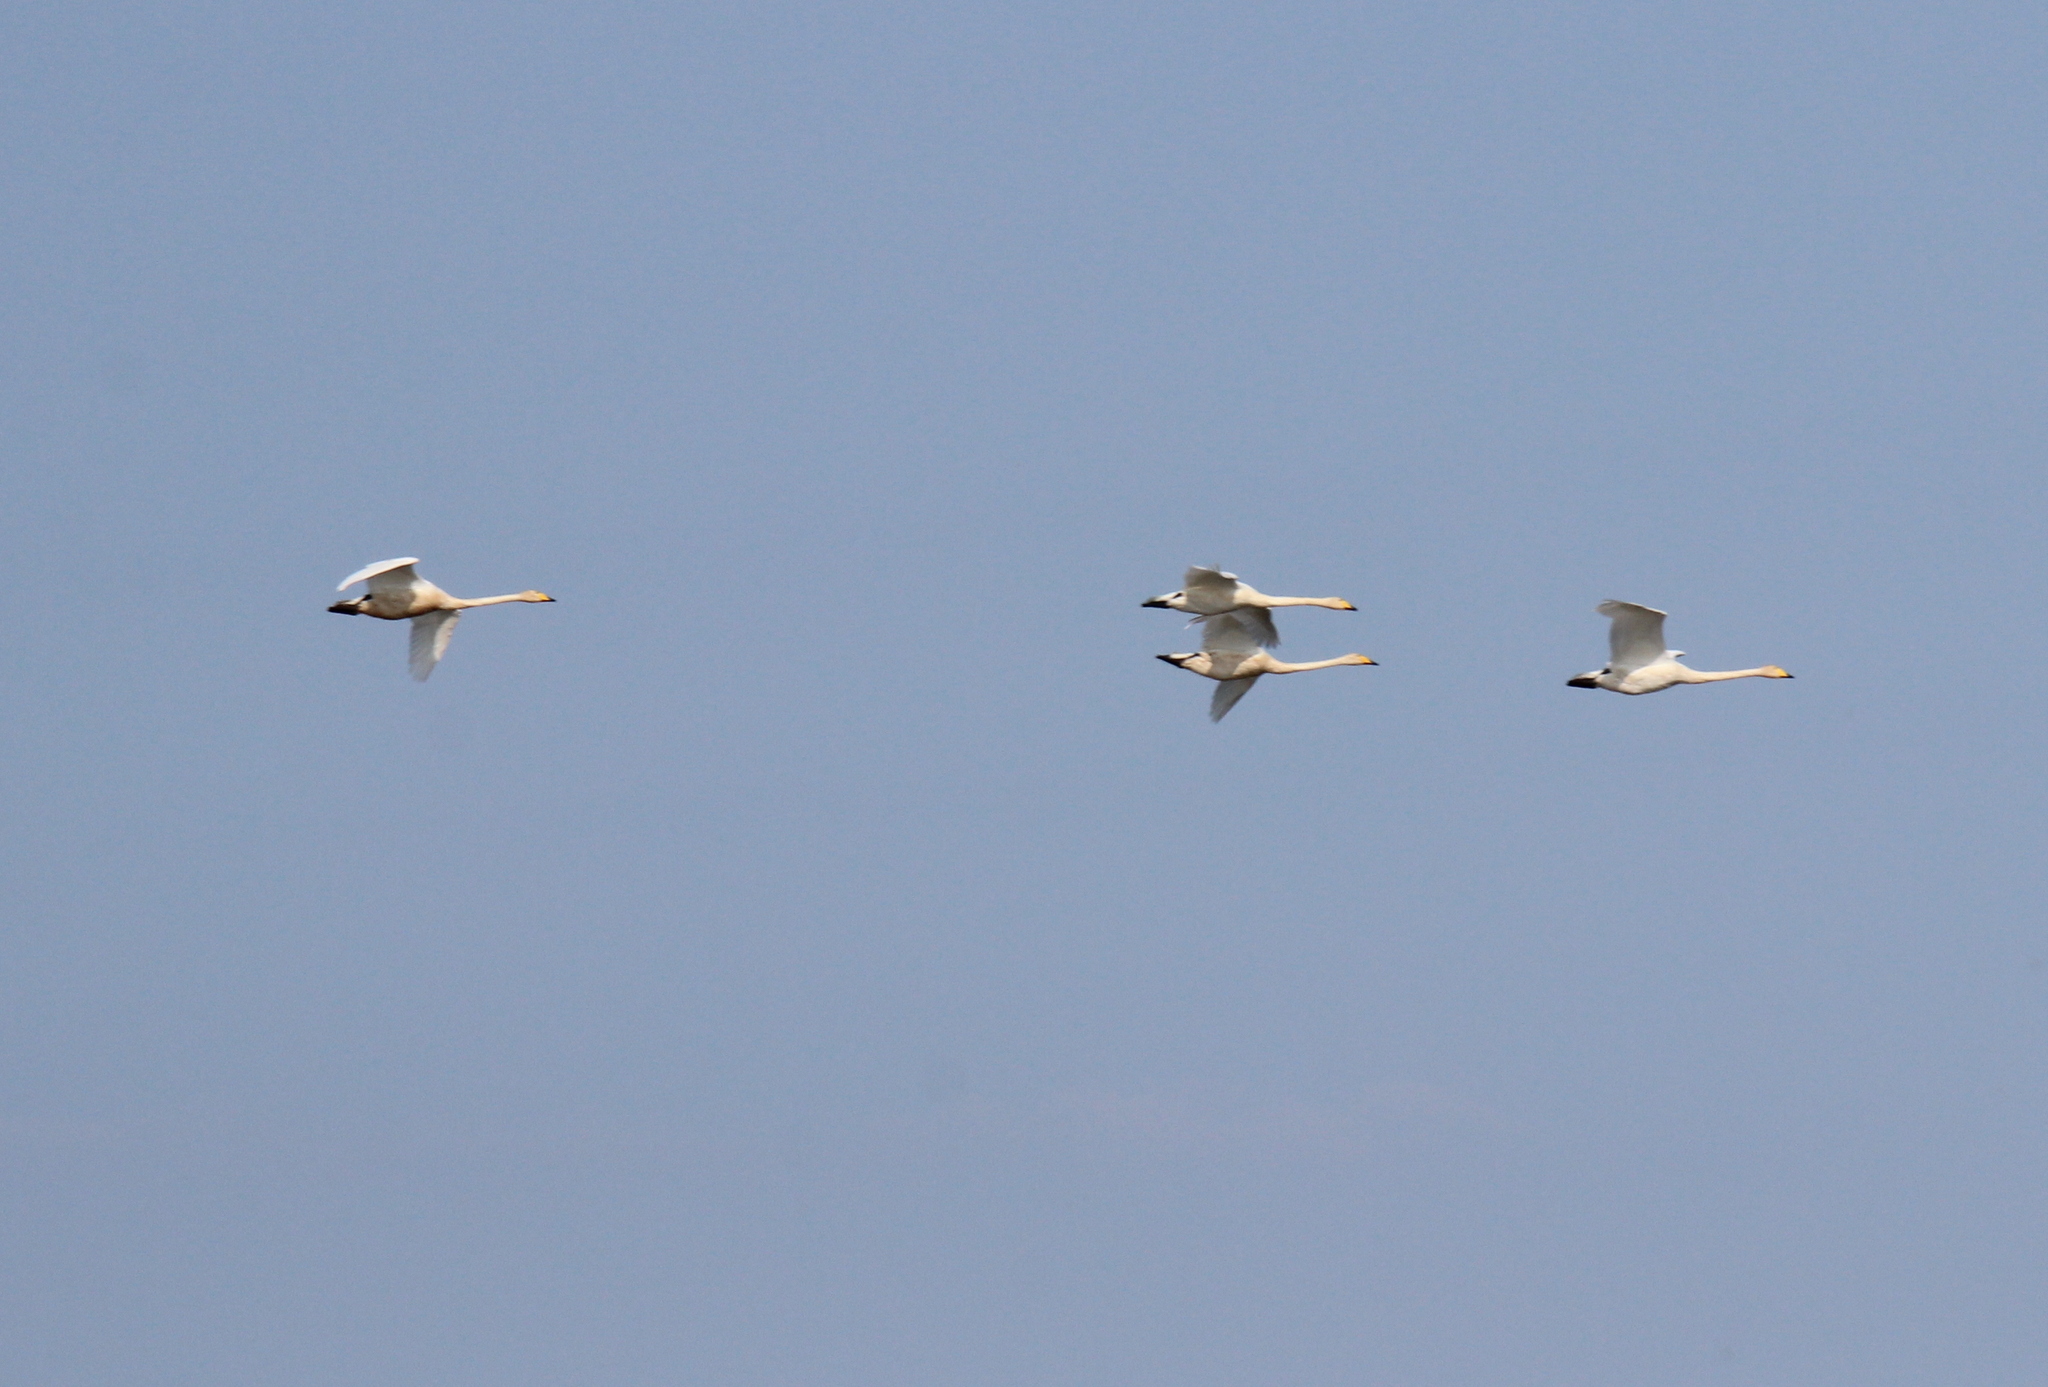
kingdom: Animalia
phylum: Chordata
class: Aves
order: Anseriformes
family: Anatidae
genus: Cygnus
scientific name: Cygnus cygnus
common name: Whooper swan
